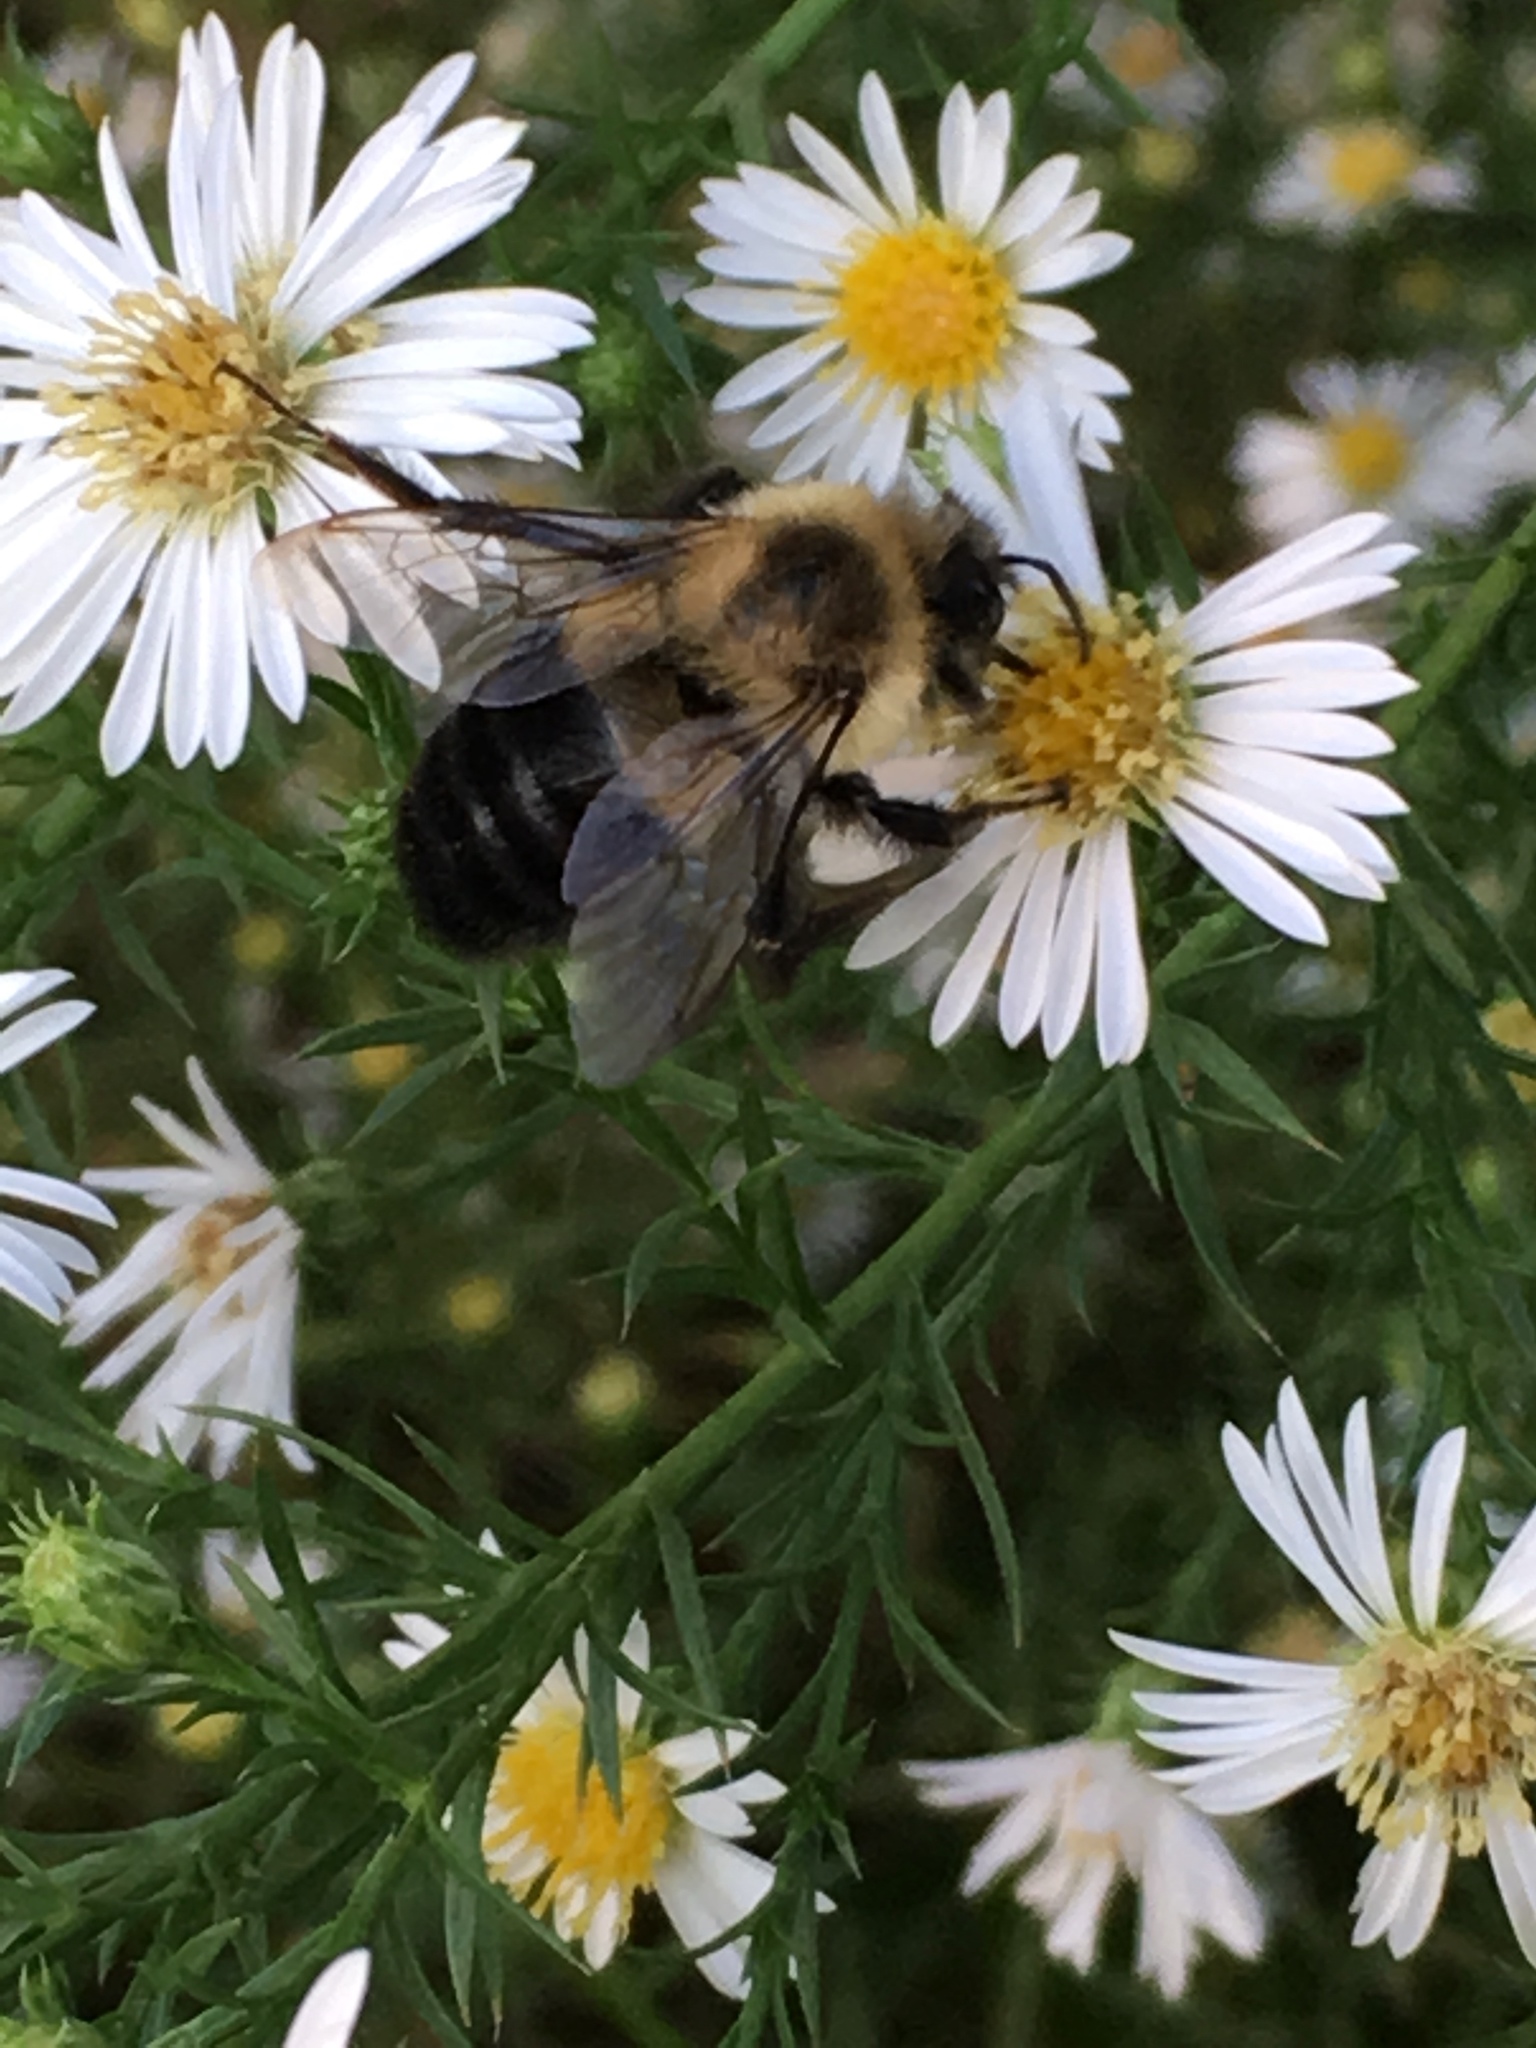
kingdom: Animalia
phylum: Arthropoda
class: Insecta
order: Hymenoptera
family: Apidae
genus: Bombus
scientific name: Bombus impatiens
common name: Common eastern bumble bee
